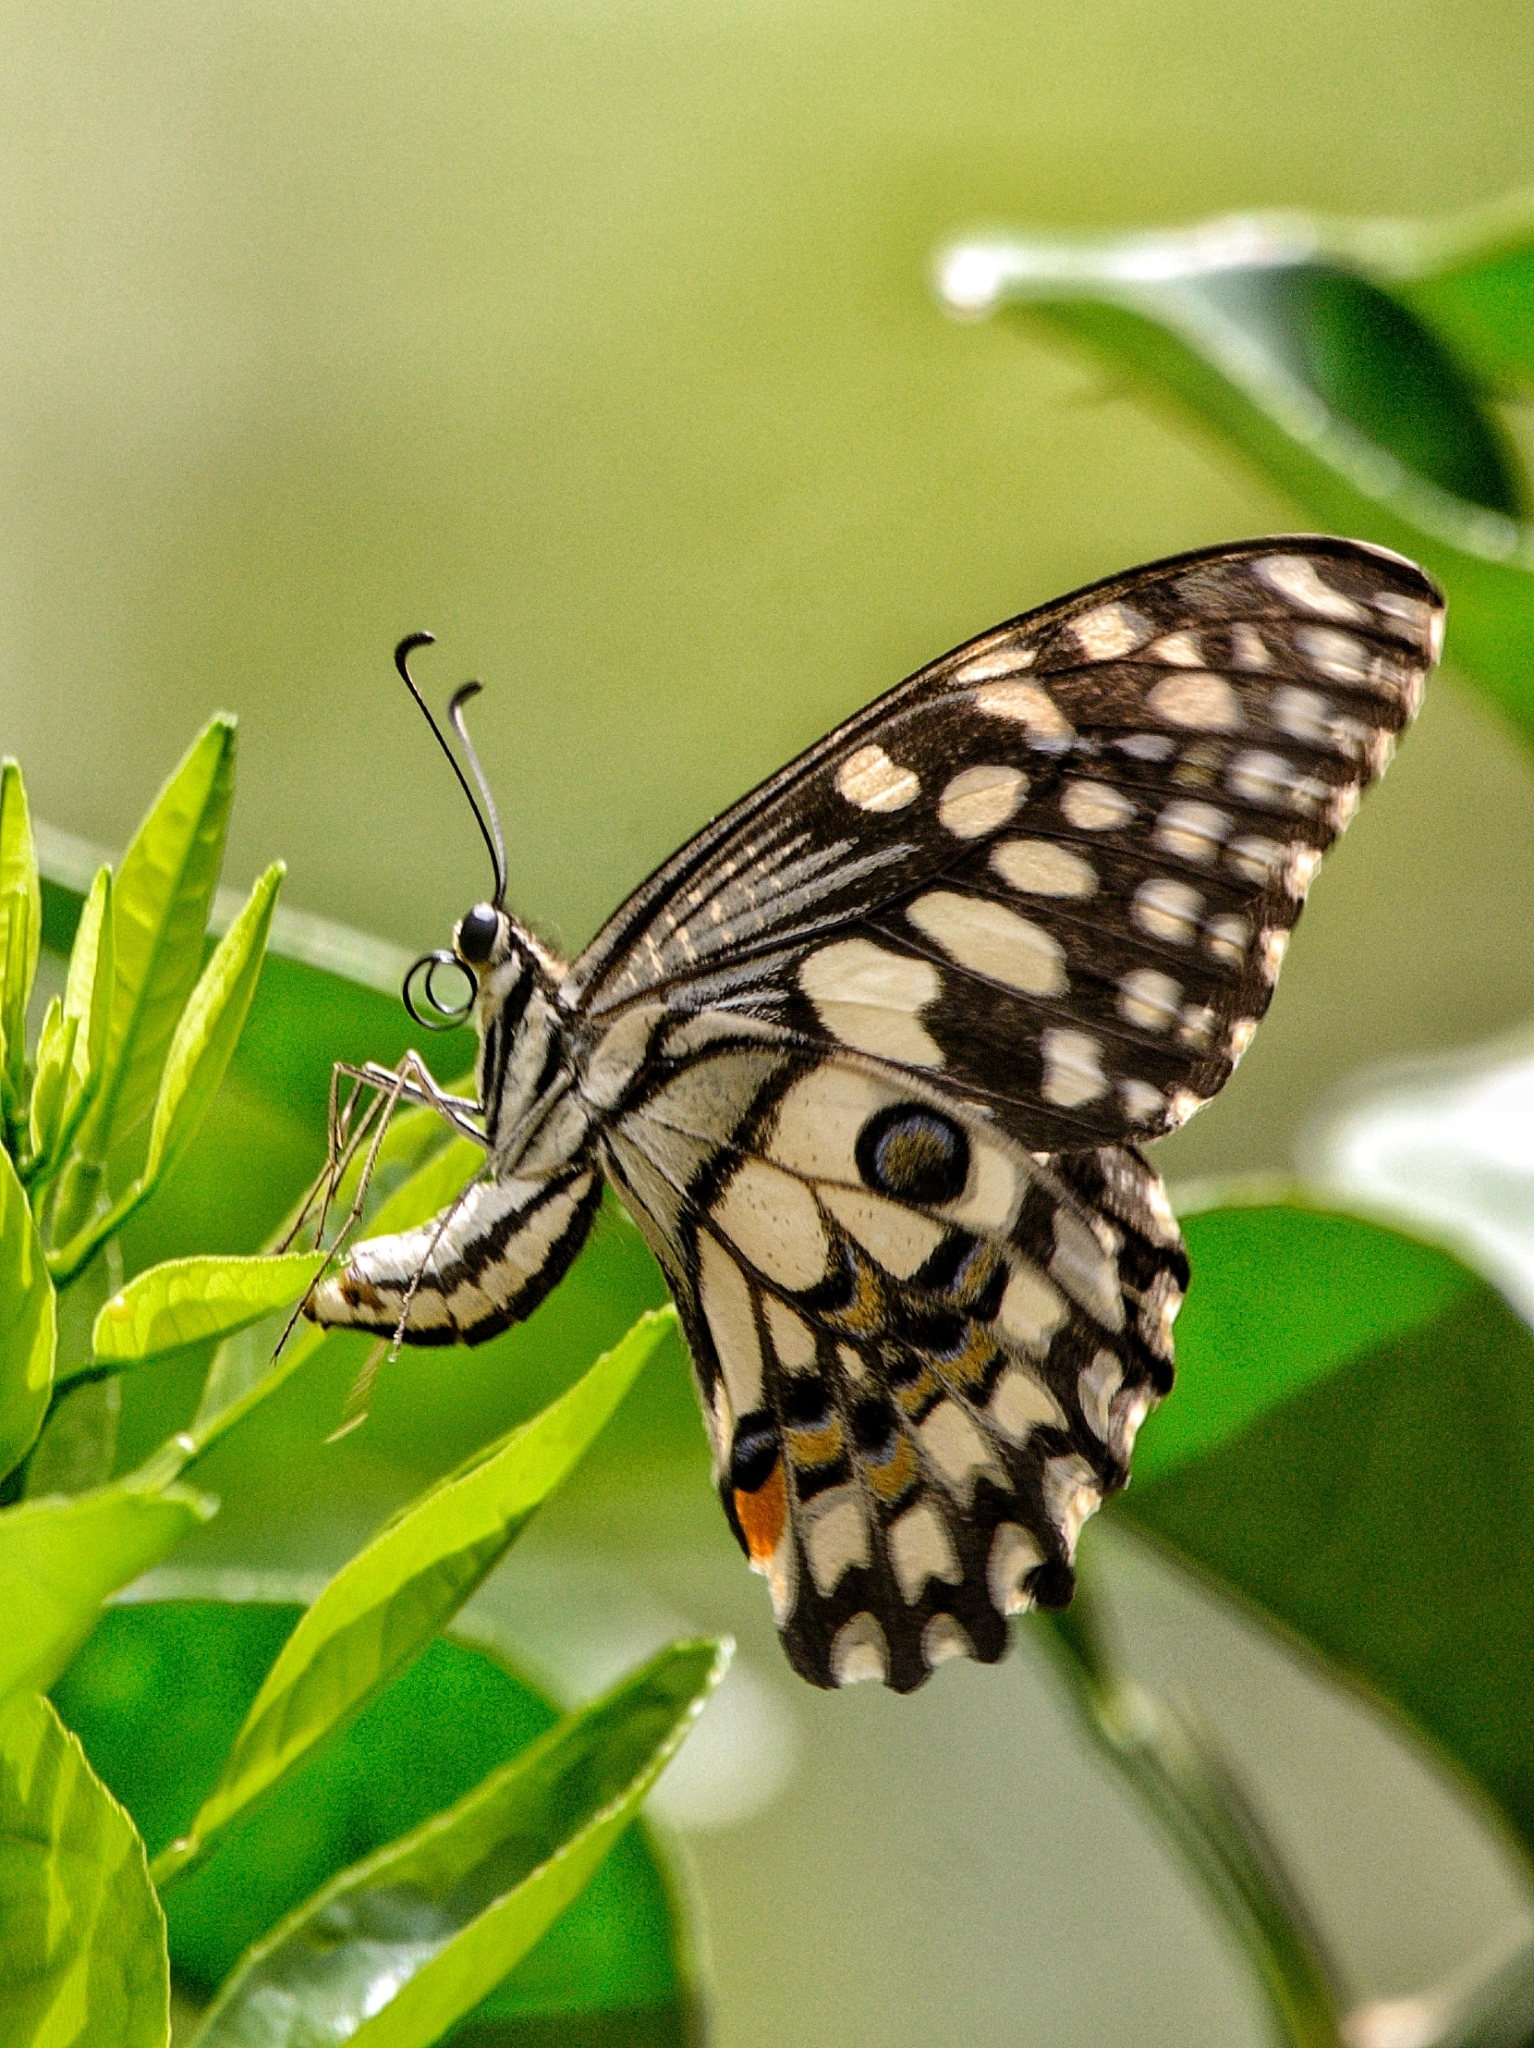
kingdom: Animalia
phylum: Arthropoda
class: Insecta
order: Lepidoptera
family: Papilionidae
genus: Papilio
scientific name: Papilio demoleus
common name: Lime butterfly
